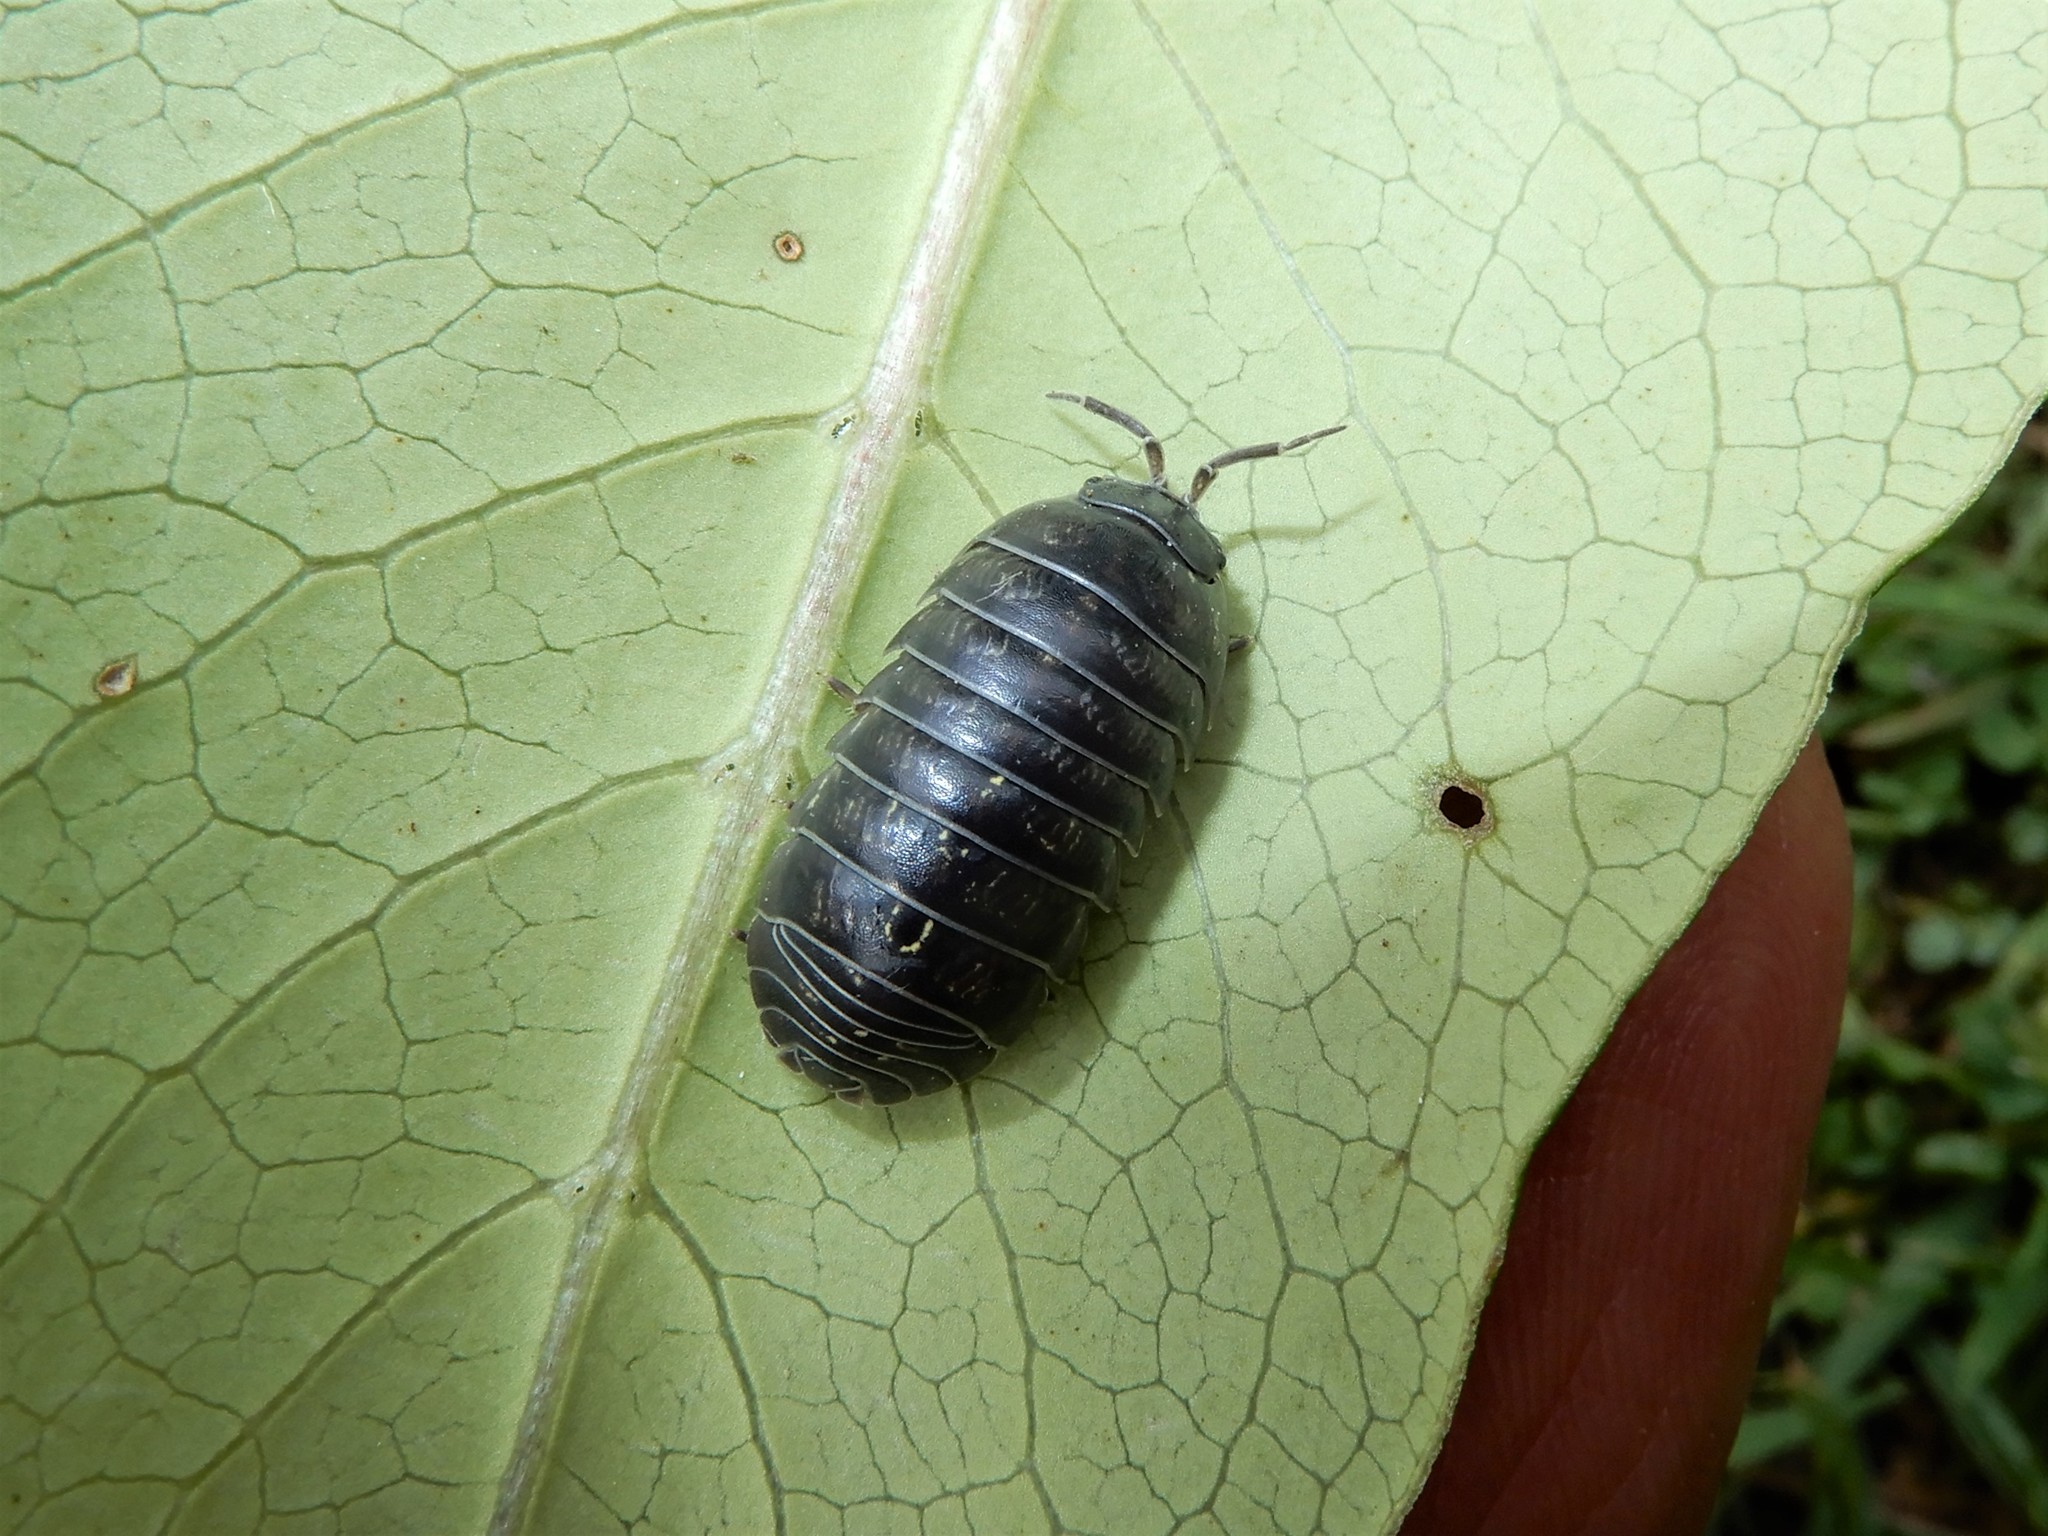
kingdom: Animalia
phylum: Arthropoda
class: Malacostraca
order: Isopoda
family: Armadillidiidae
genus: Armadillidium
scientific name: Armadillidium vulgare
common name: Common pill woodlouse
